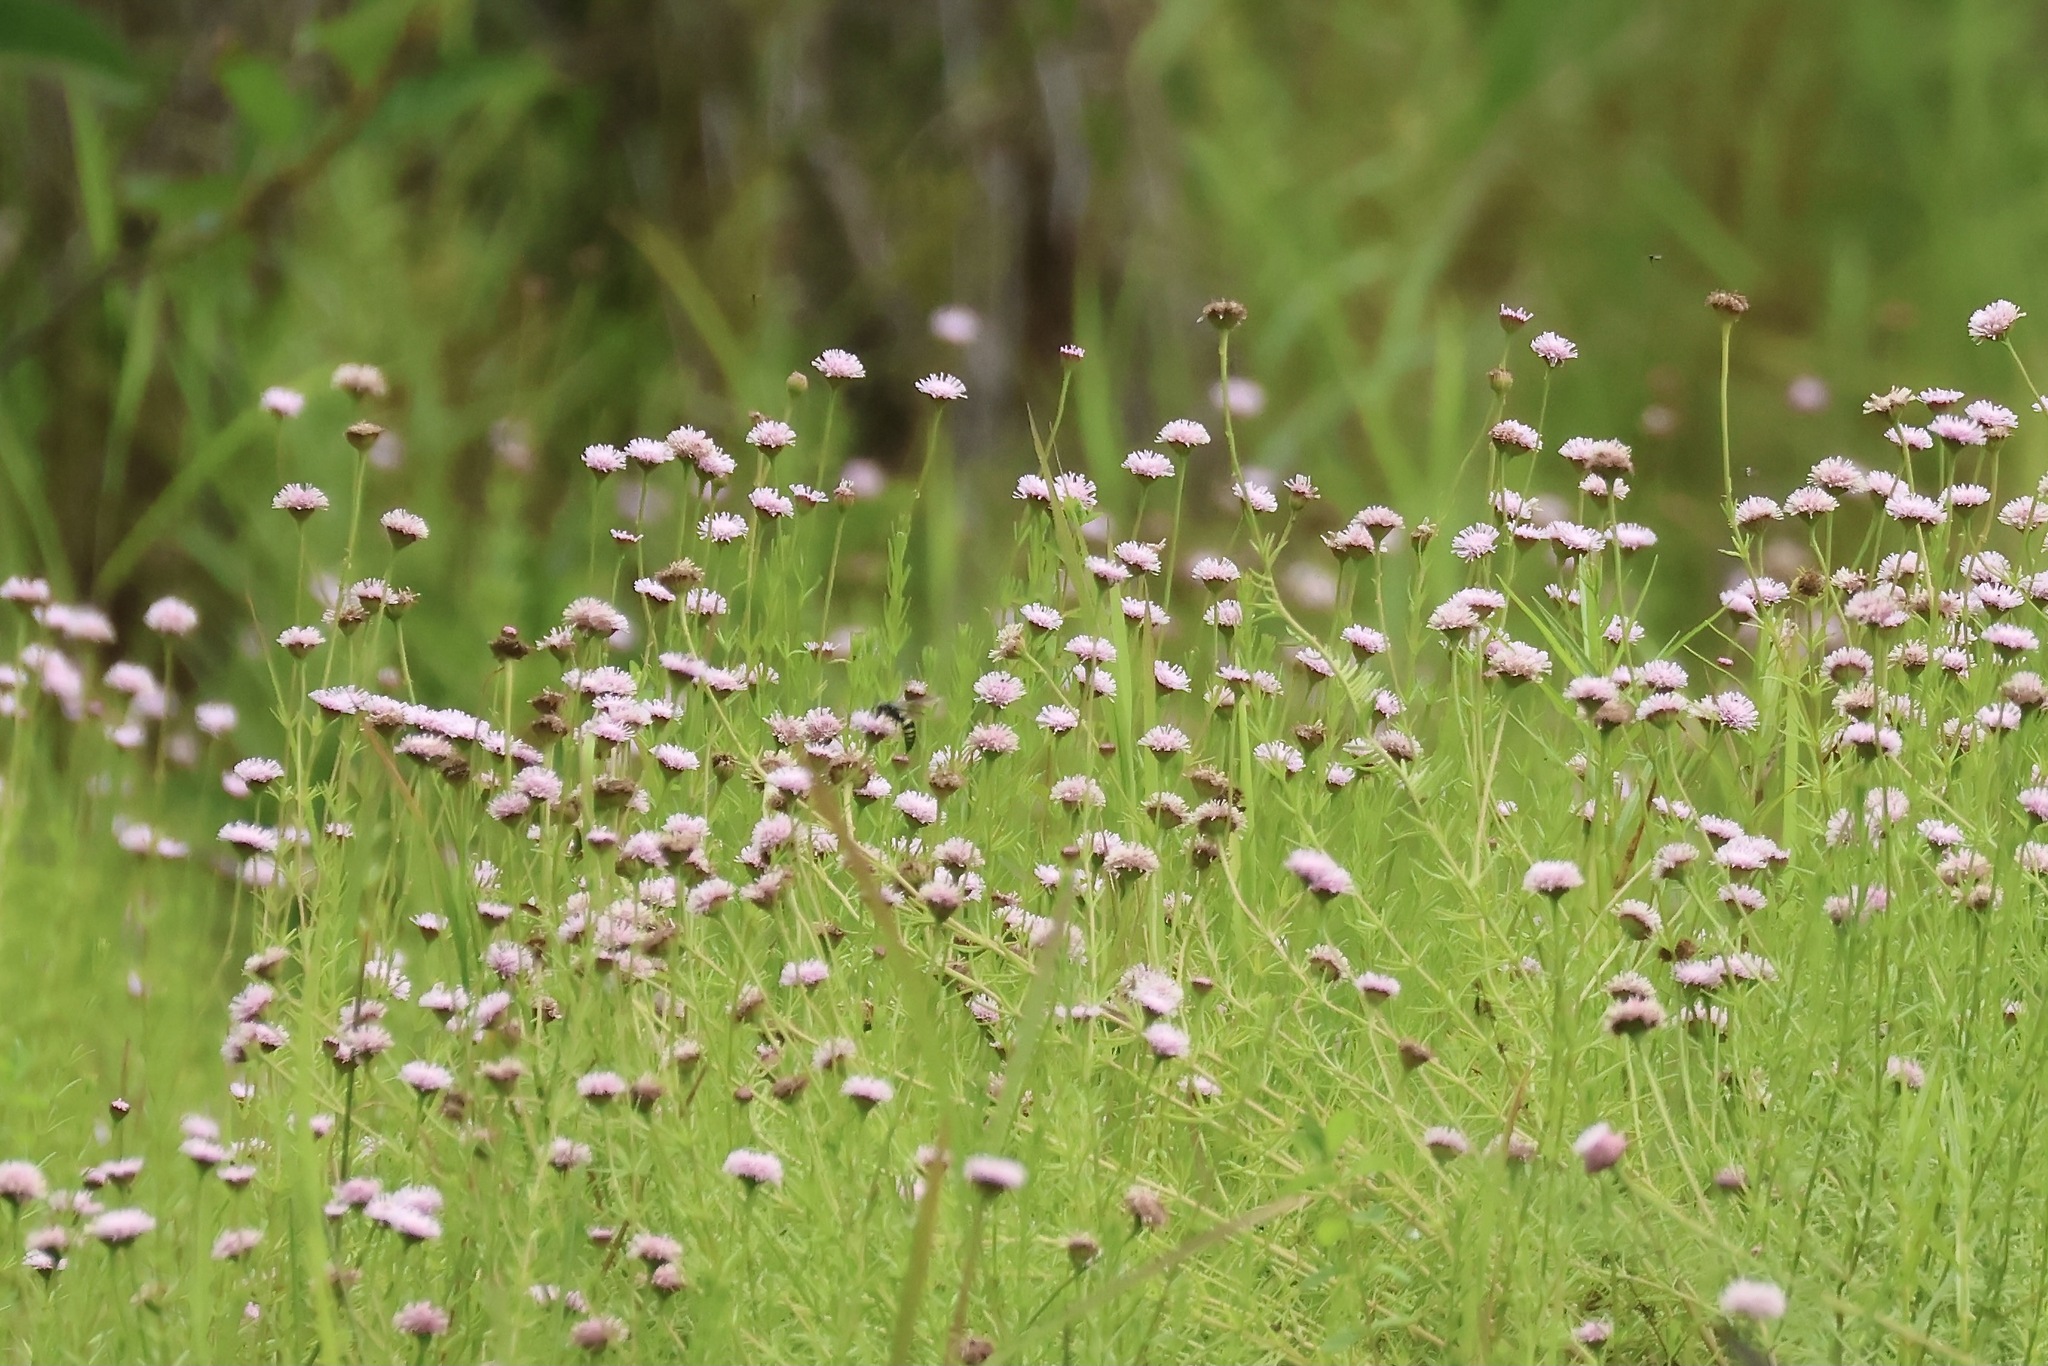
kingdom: Plantae
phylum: Tracheophyta
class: Magnoliopsida
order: Asterales
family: Asteraceae
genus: Sclerolepis
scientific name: Sclerolepis uniflora
